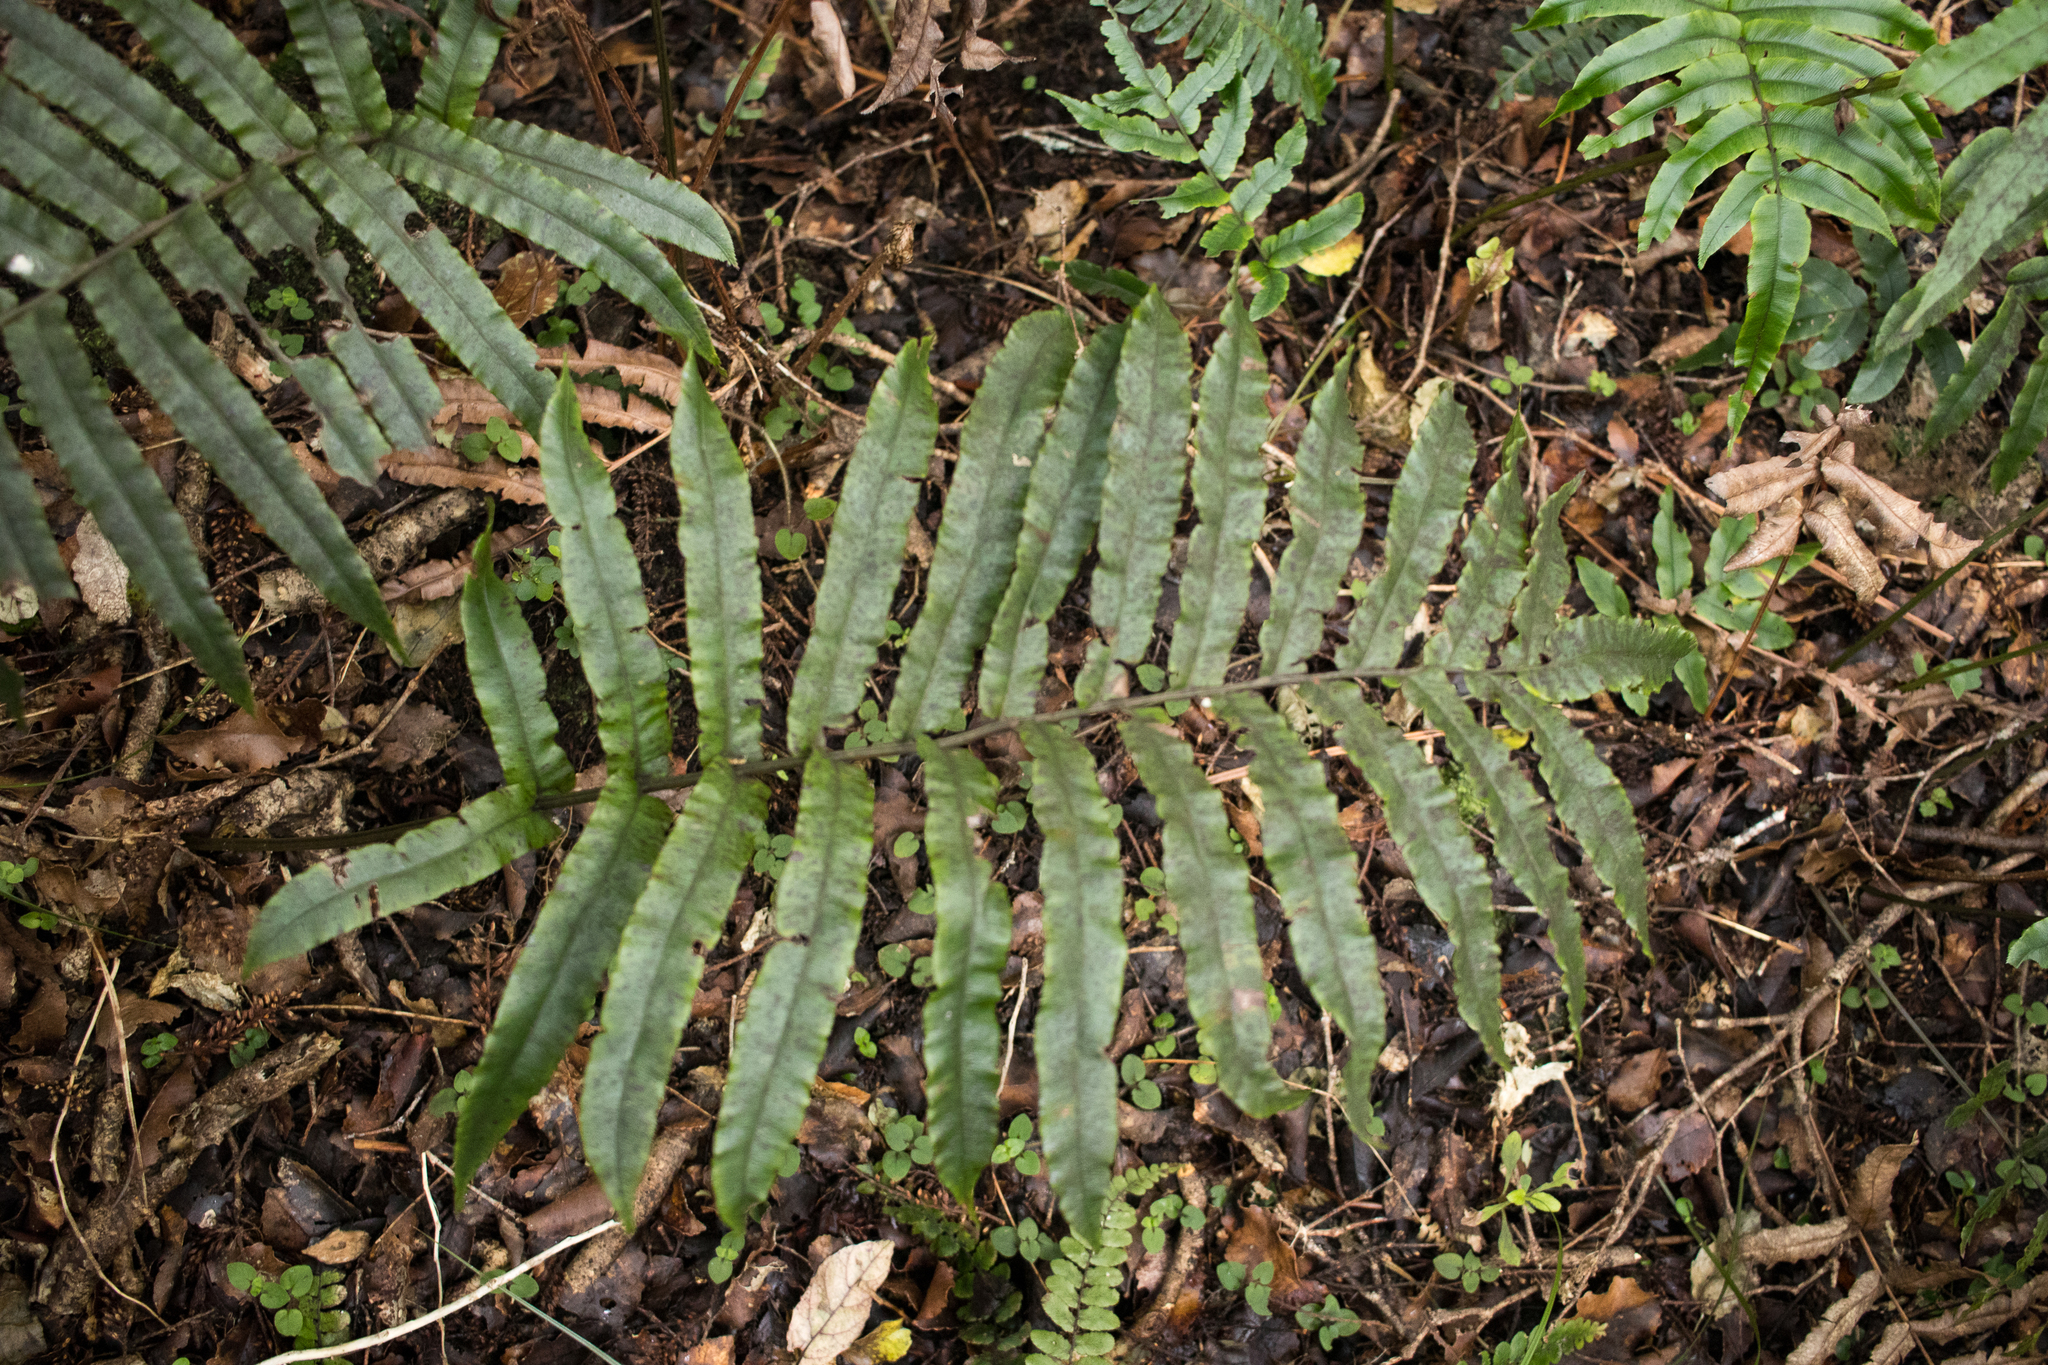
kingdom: Plantae
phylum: Tracheophyta
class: Polypodiopsida
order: Polypodiales
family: Blechnaceae
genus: Parablechnum
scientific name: Parablechnum procerum
